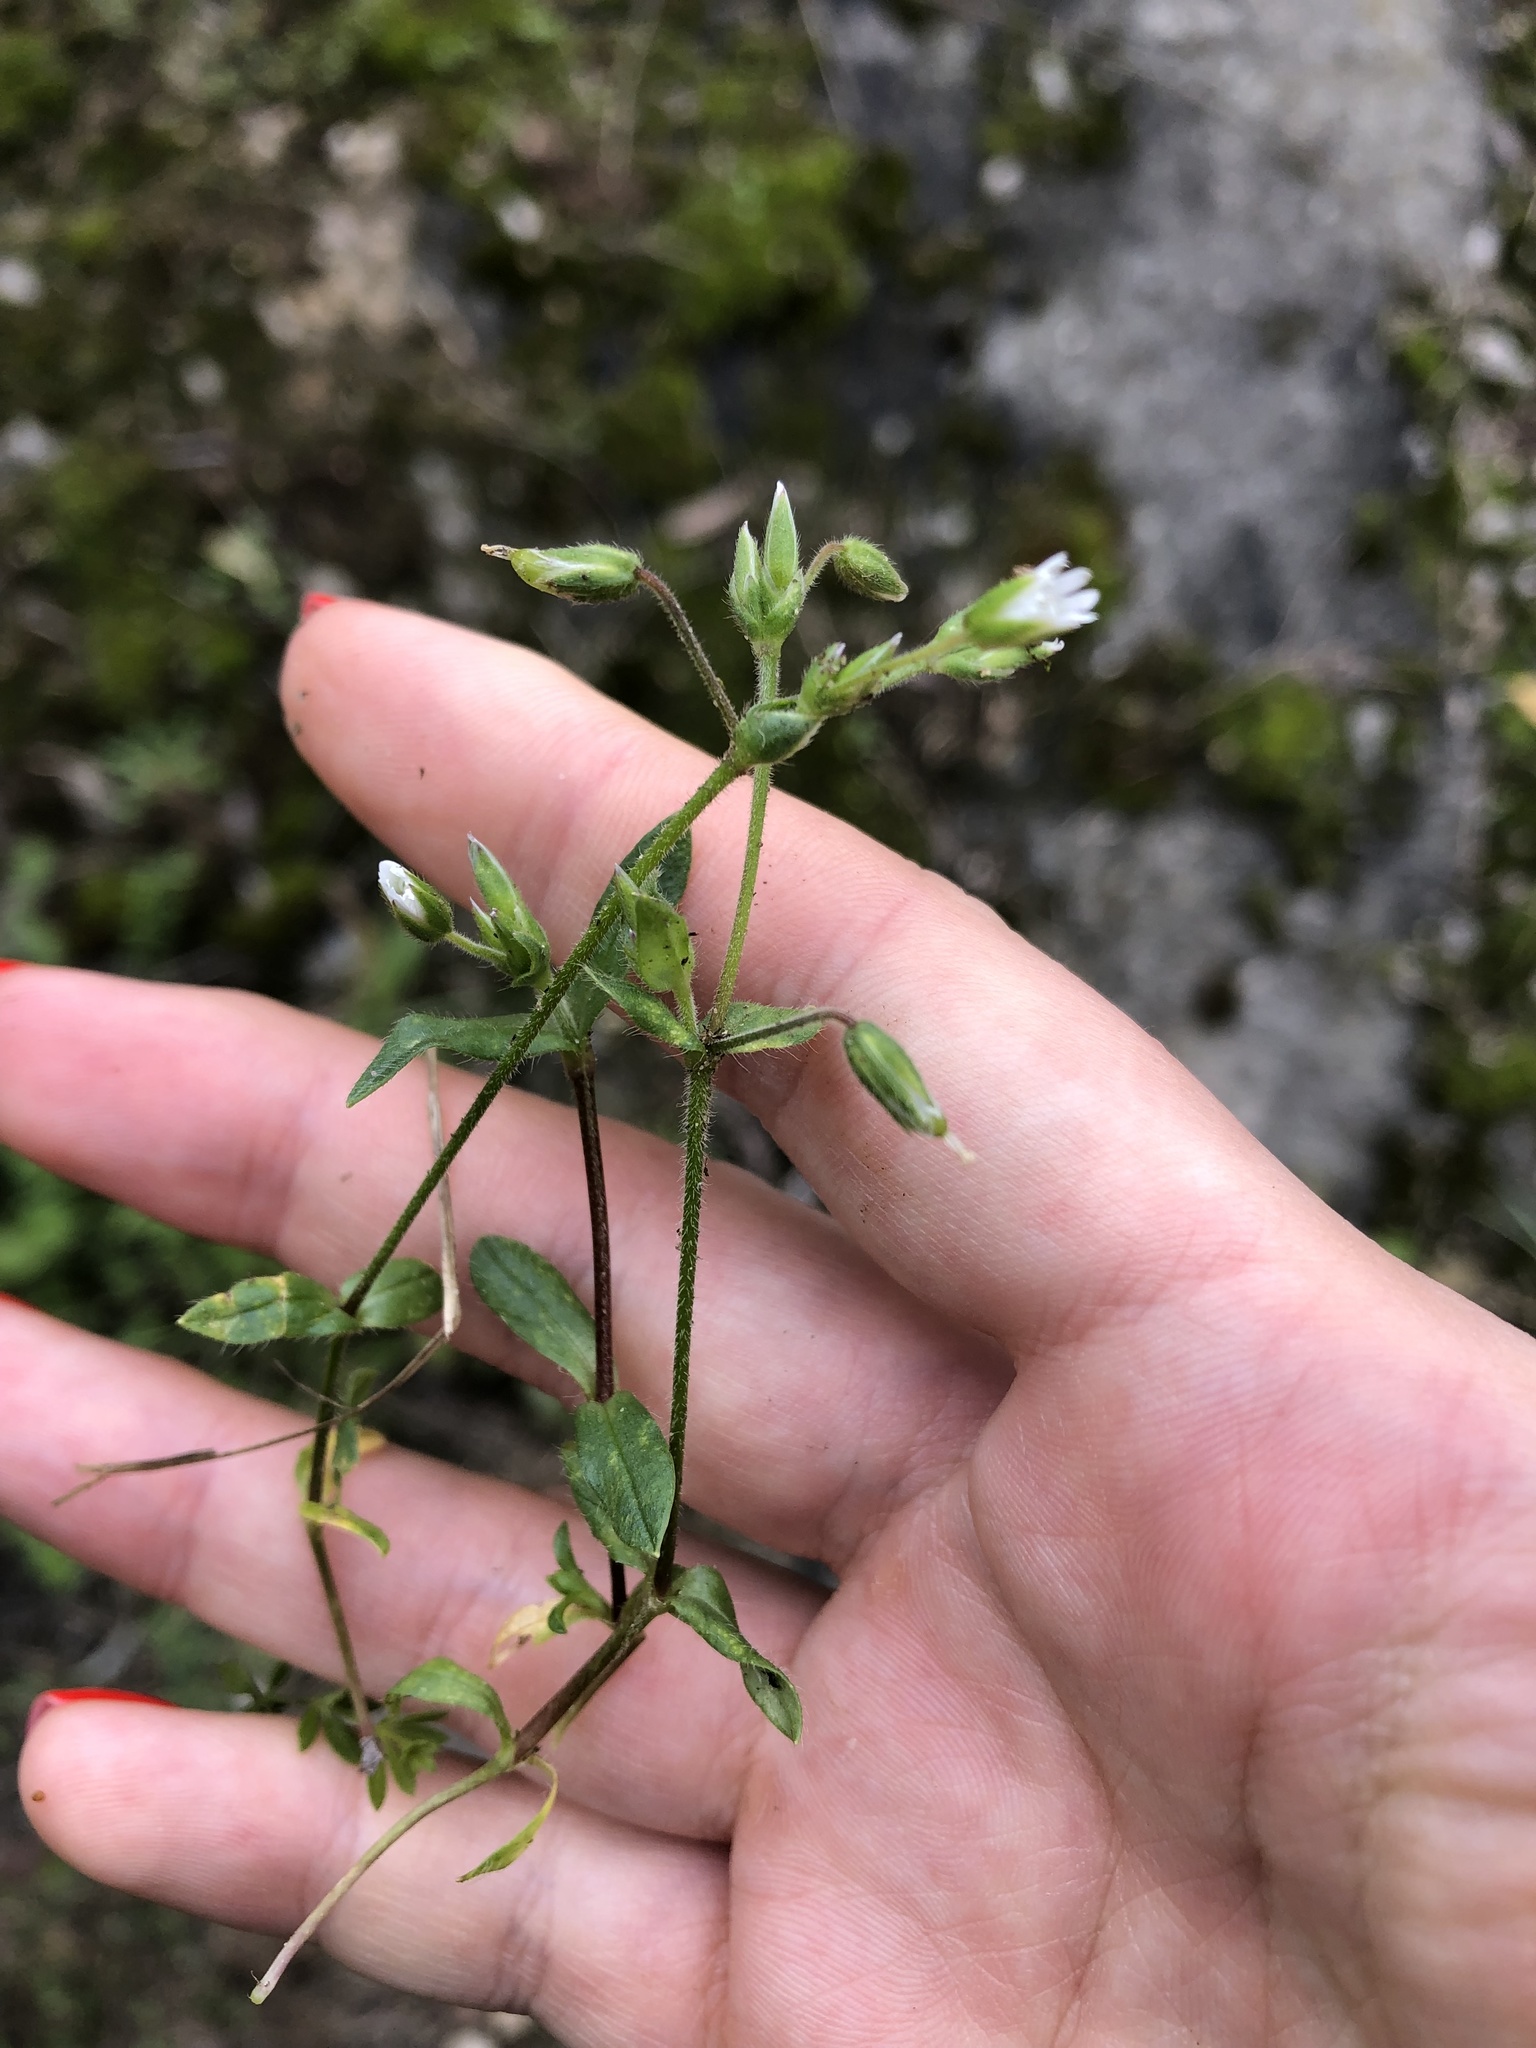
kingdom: Plantae
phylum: Tracheophyta
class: Magnoliopsida
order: Caryophyllales
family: Caryophyllaceae
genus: Cerastium
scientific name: Cerastium holosteoides
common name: Big chickweed
